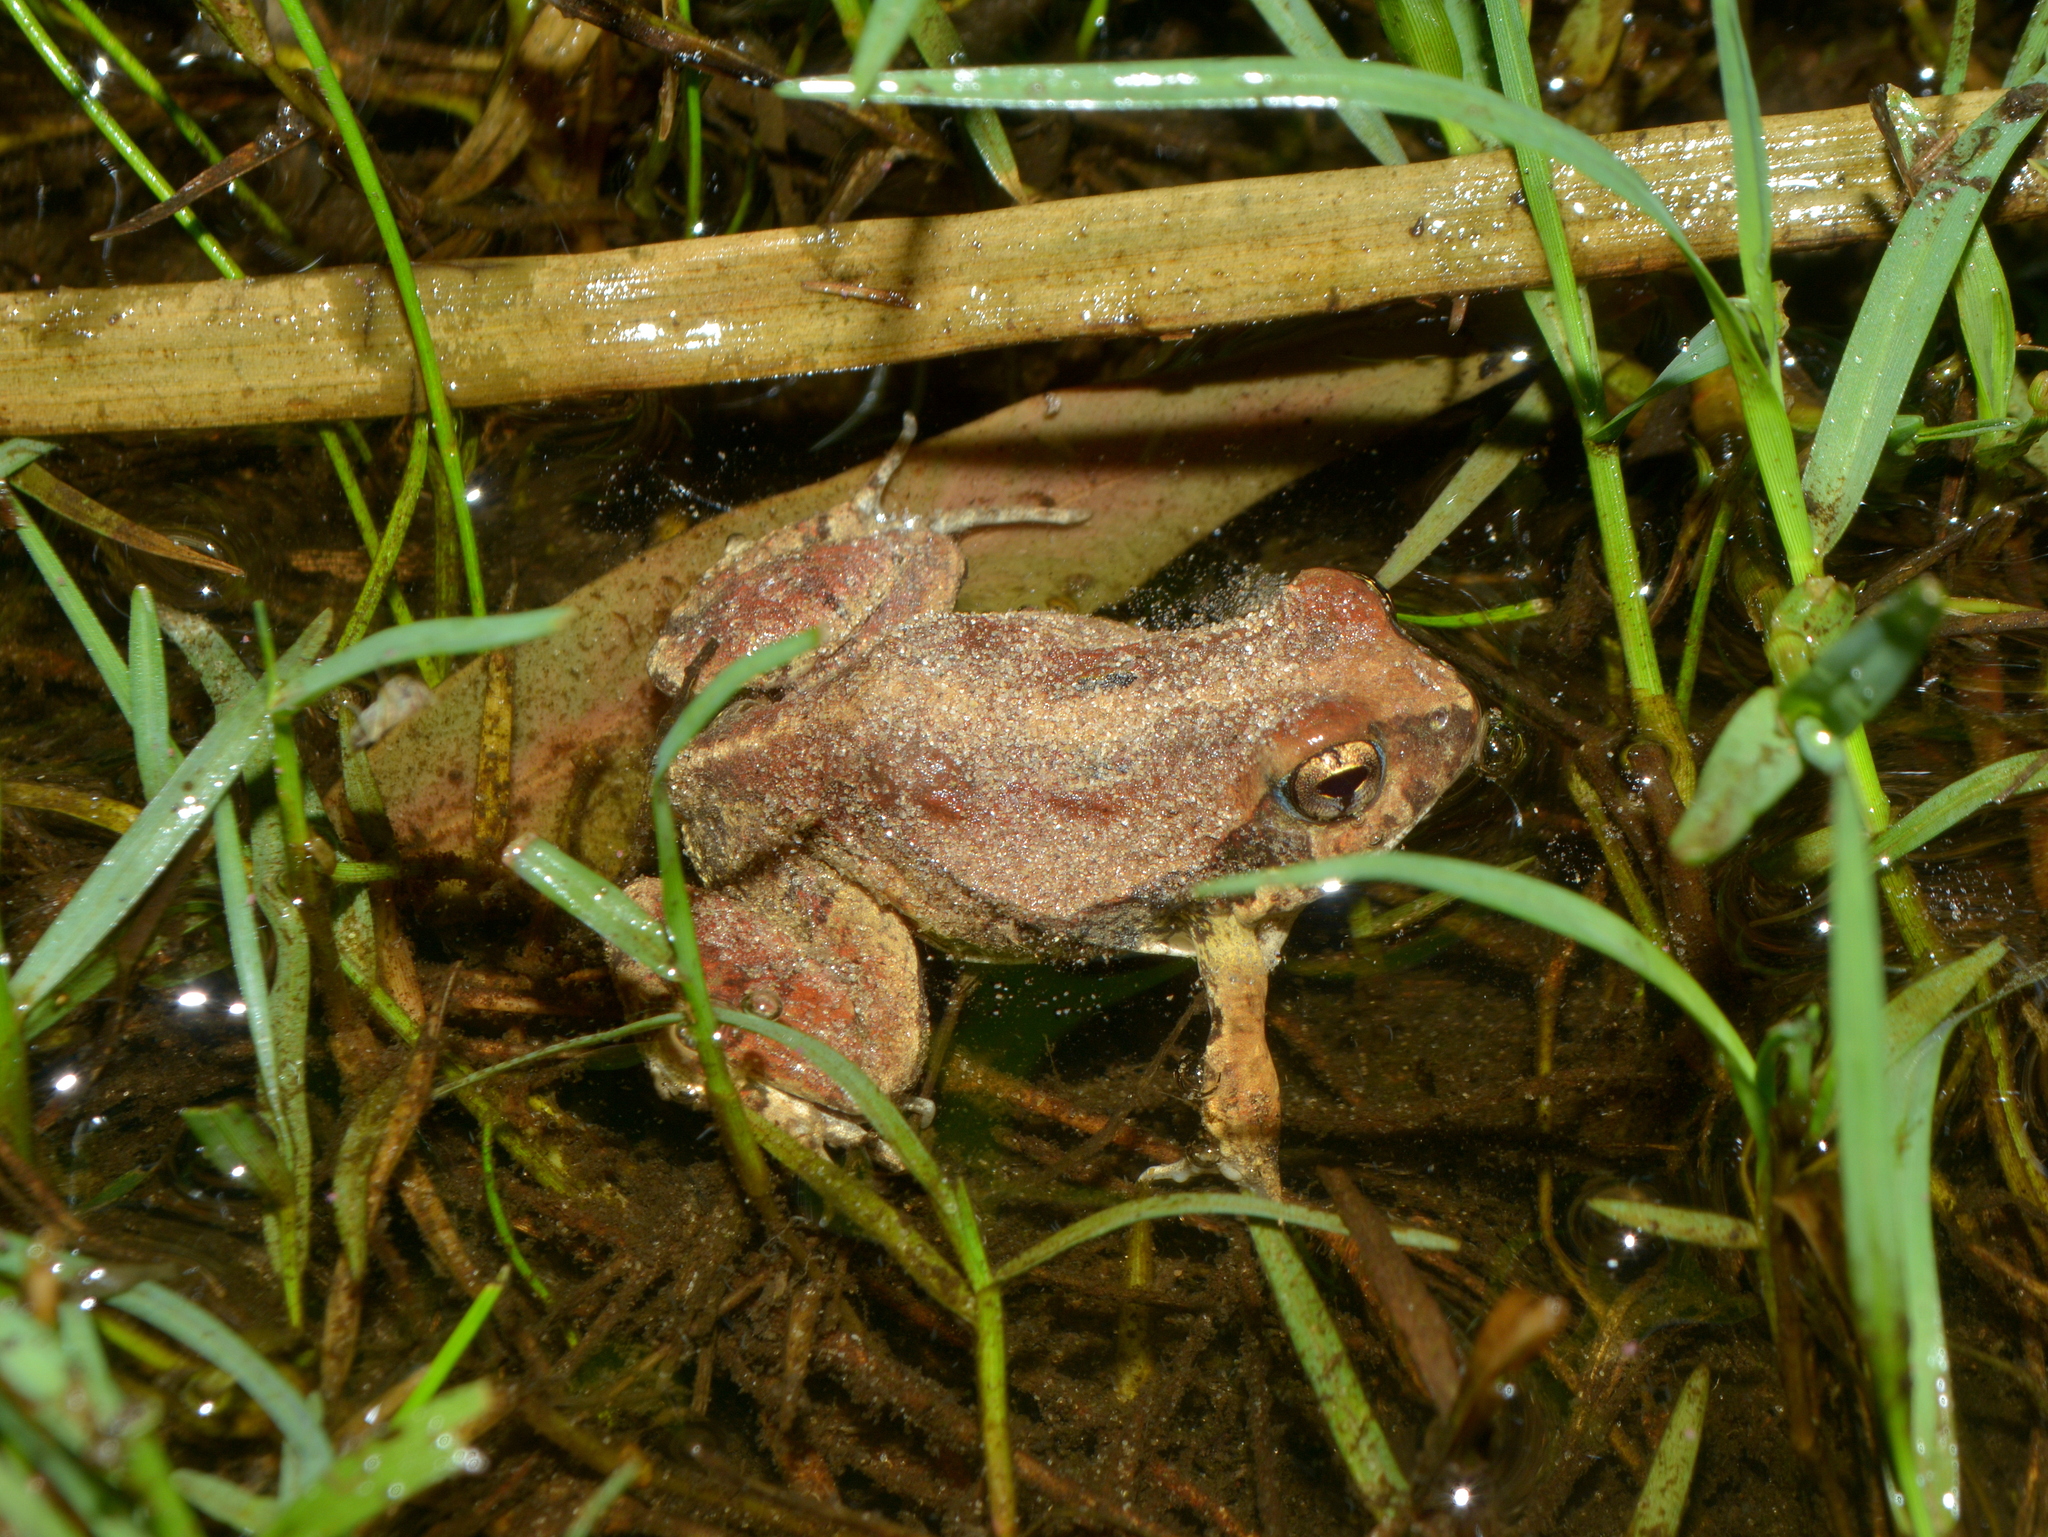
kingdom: Animalia
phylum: Chordata
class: Amphibia
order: Anura
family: Leptodactylidae
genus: Physalaemus
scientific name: Physalaemus biligonigerus
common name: Weeping frog
